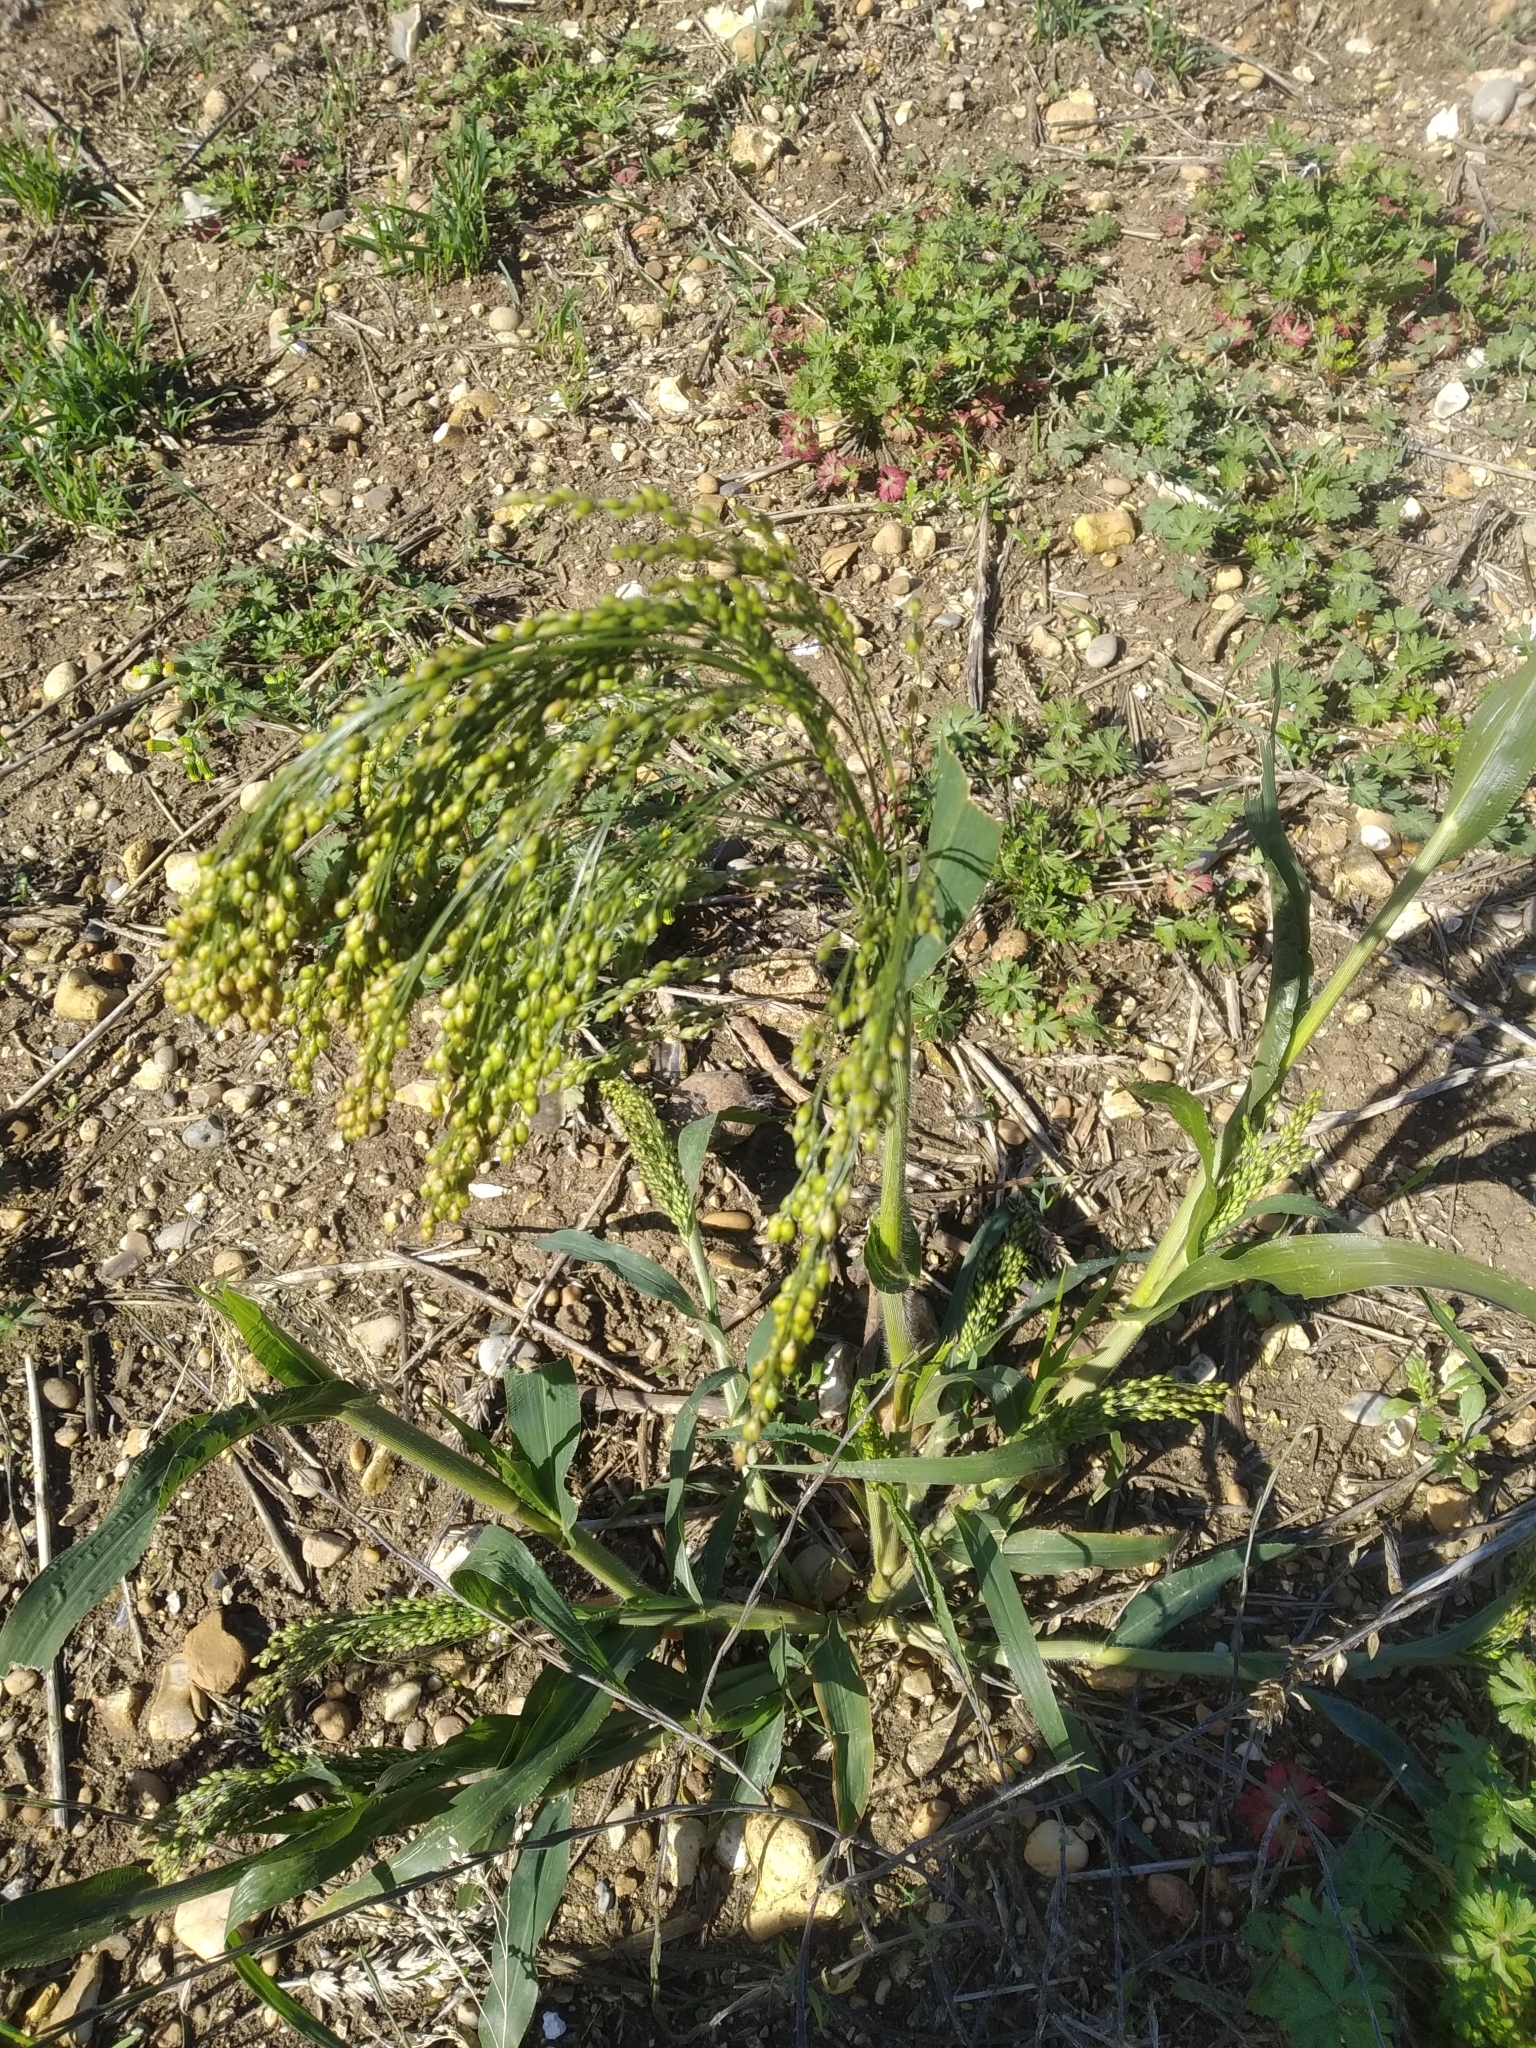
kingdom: Plantae
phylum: Tracheophyta
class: Liliopsida
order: Poales
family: Poaceae
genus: Panicum
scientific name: Panicum miliaceum
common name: Common millet
